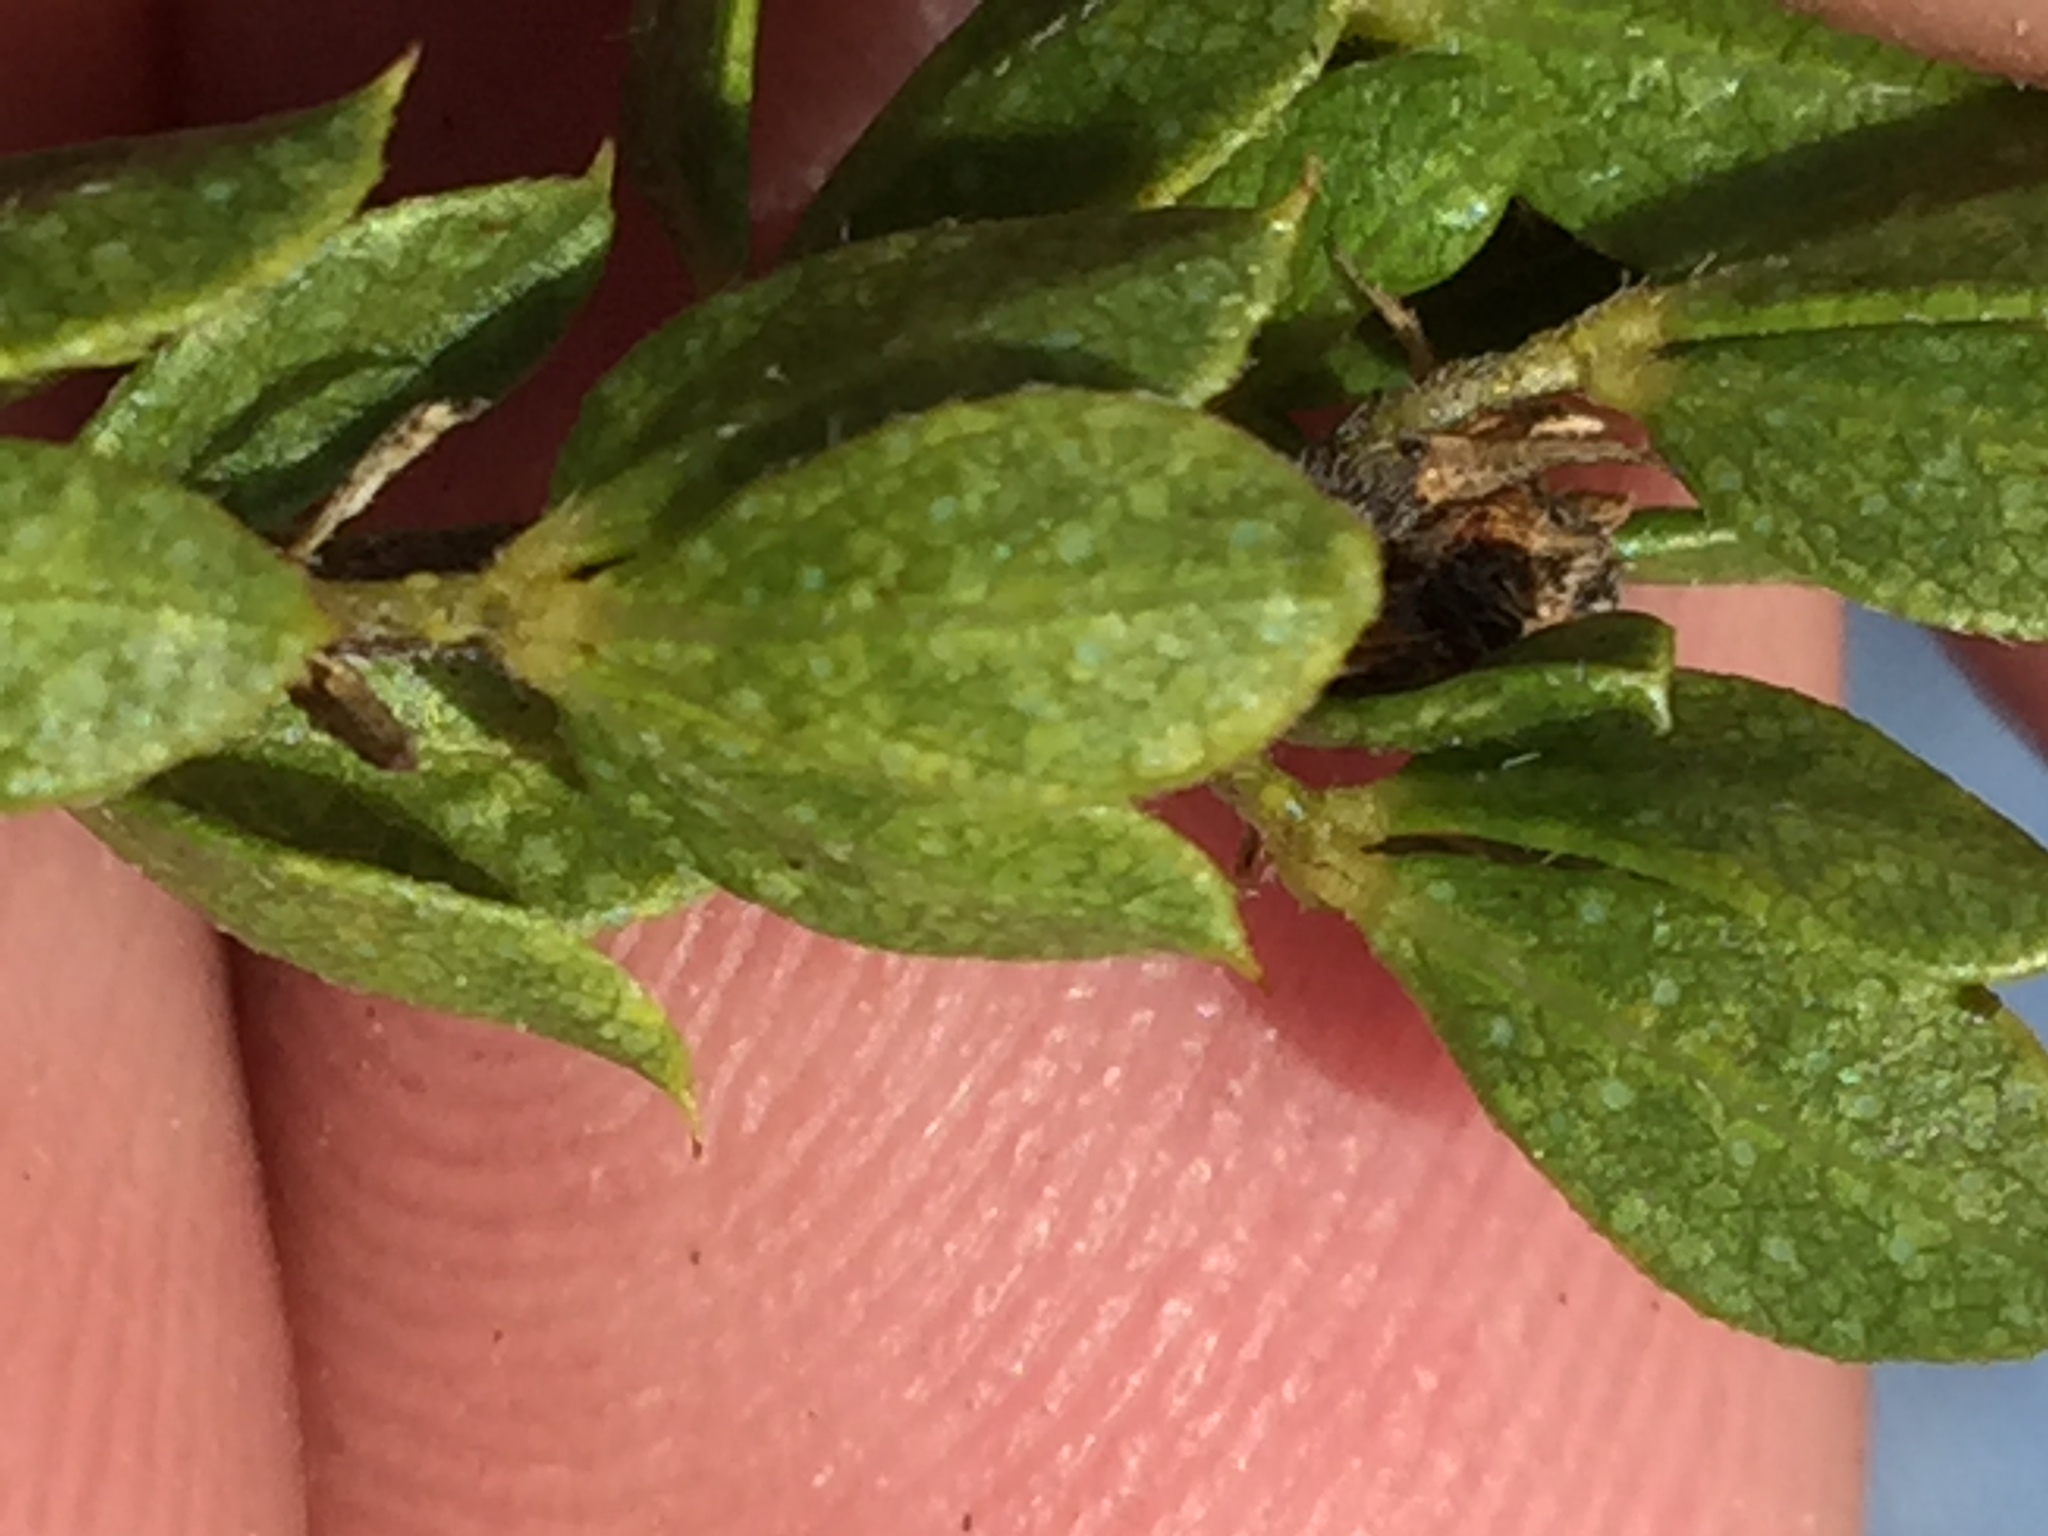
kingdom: Plantae
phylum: Tracheophyta
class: Magnoliopsida
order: Fabales
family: Fabaceae
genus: Psoralea
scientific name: Psoralea pungens
